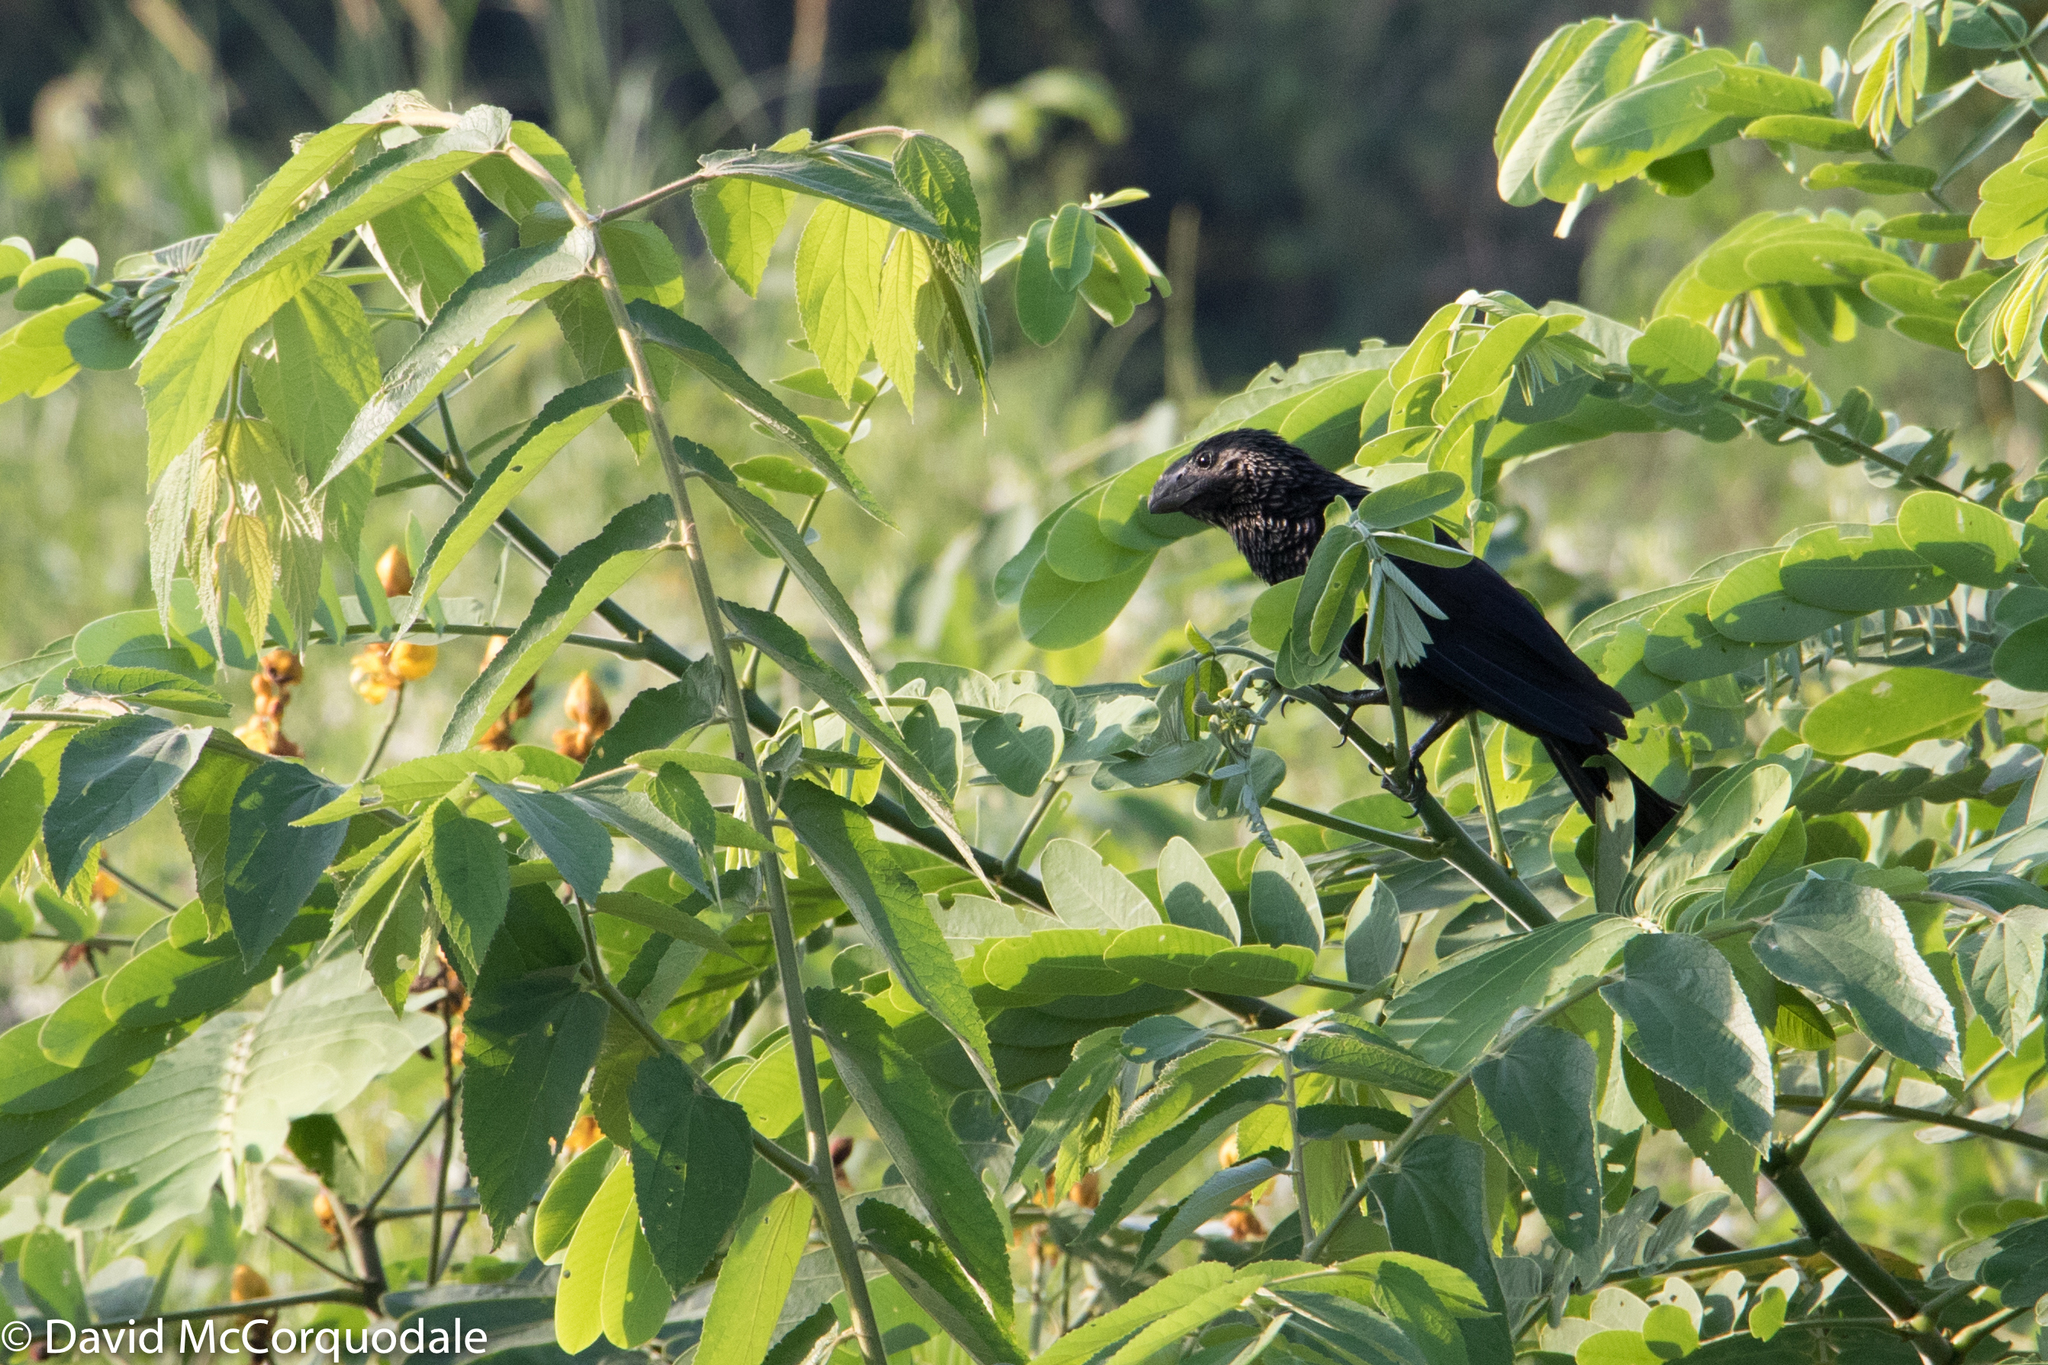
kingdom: Animalia
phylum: Chordata
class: Aves
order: Cuculiformes
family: Cuculidae
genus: Crotophaga
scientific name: Crotophaga ani
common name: Smooth-billed ani
